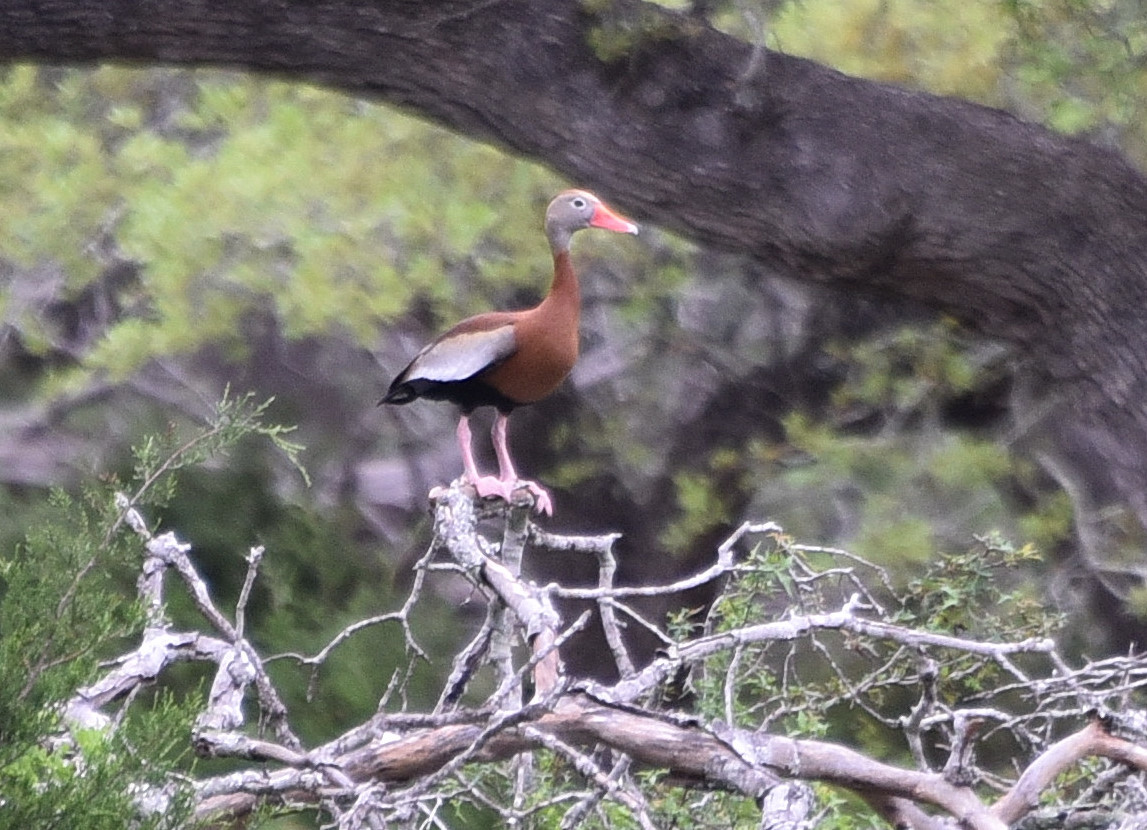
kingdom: Animalia
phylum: Chordata
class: Aves
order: Anseriformes
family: Anatidae
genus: Dendrocygna
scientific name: Dendrocygna autumnalis
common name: Black-bellied whistling duck
